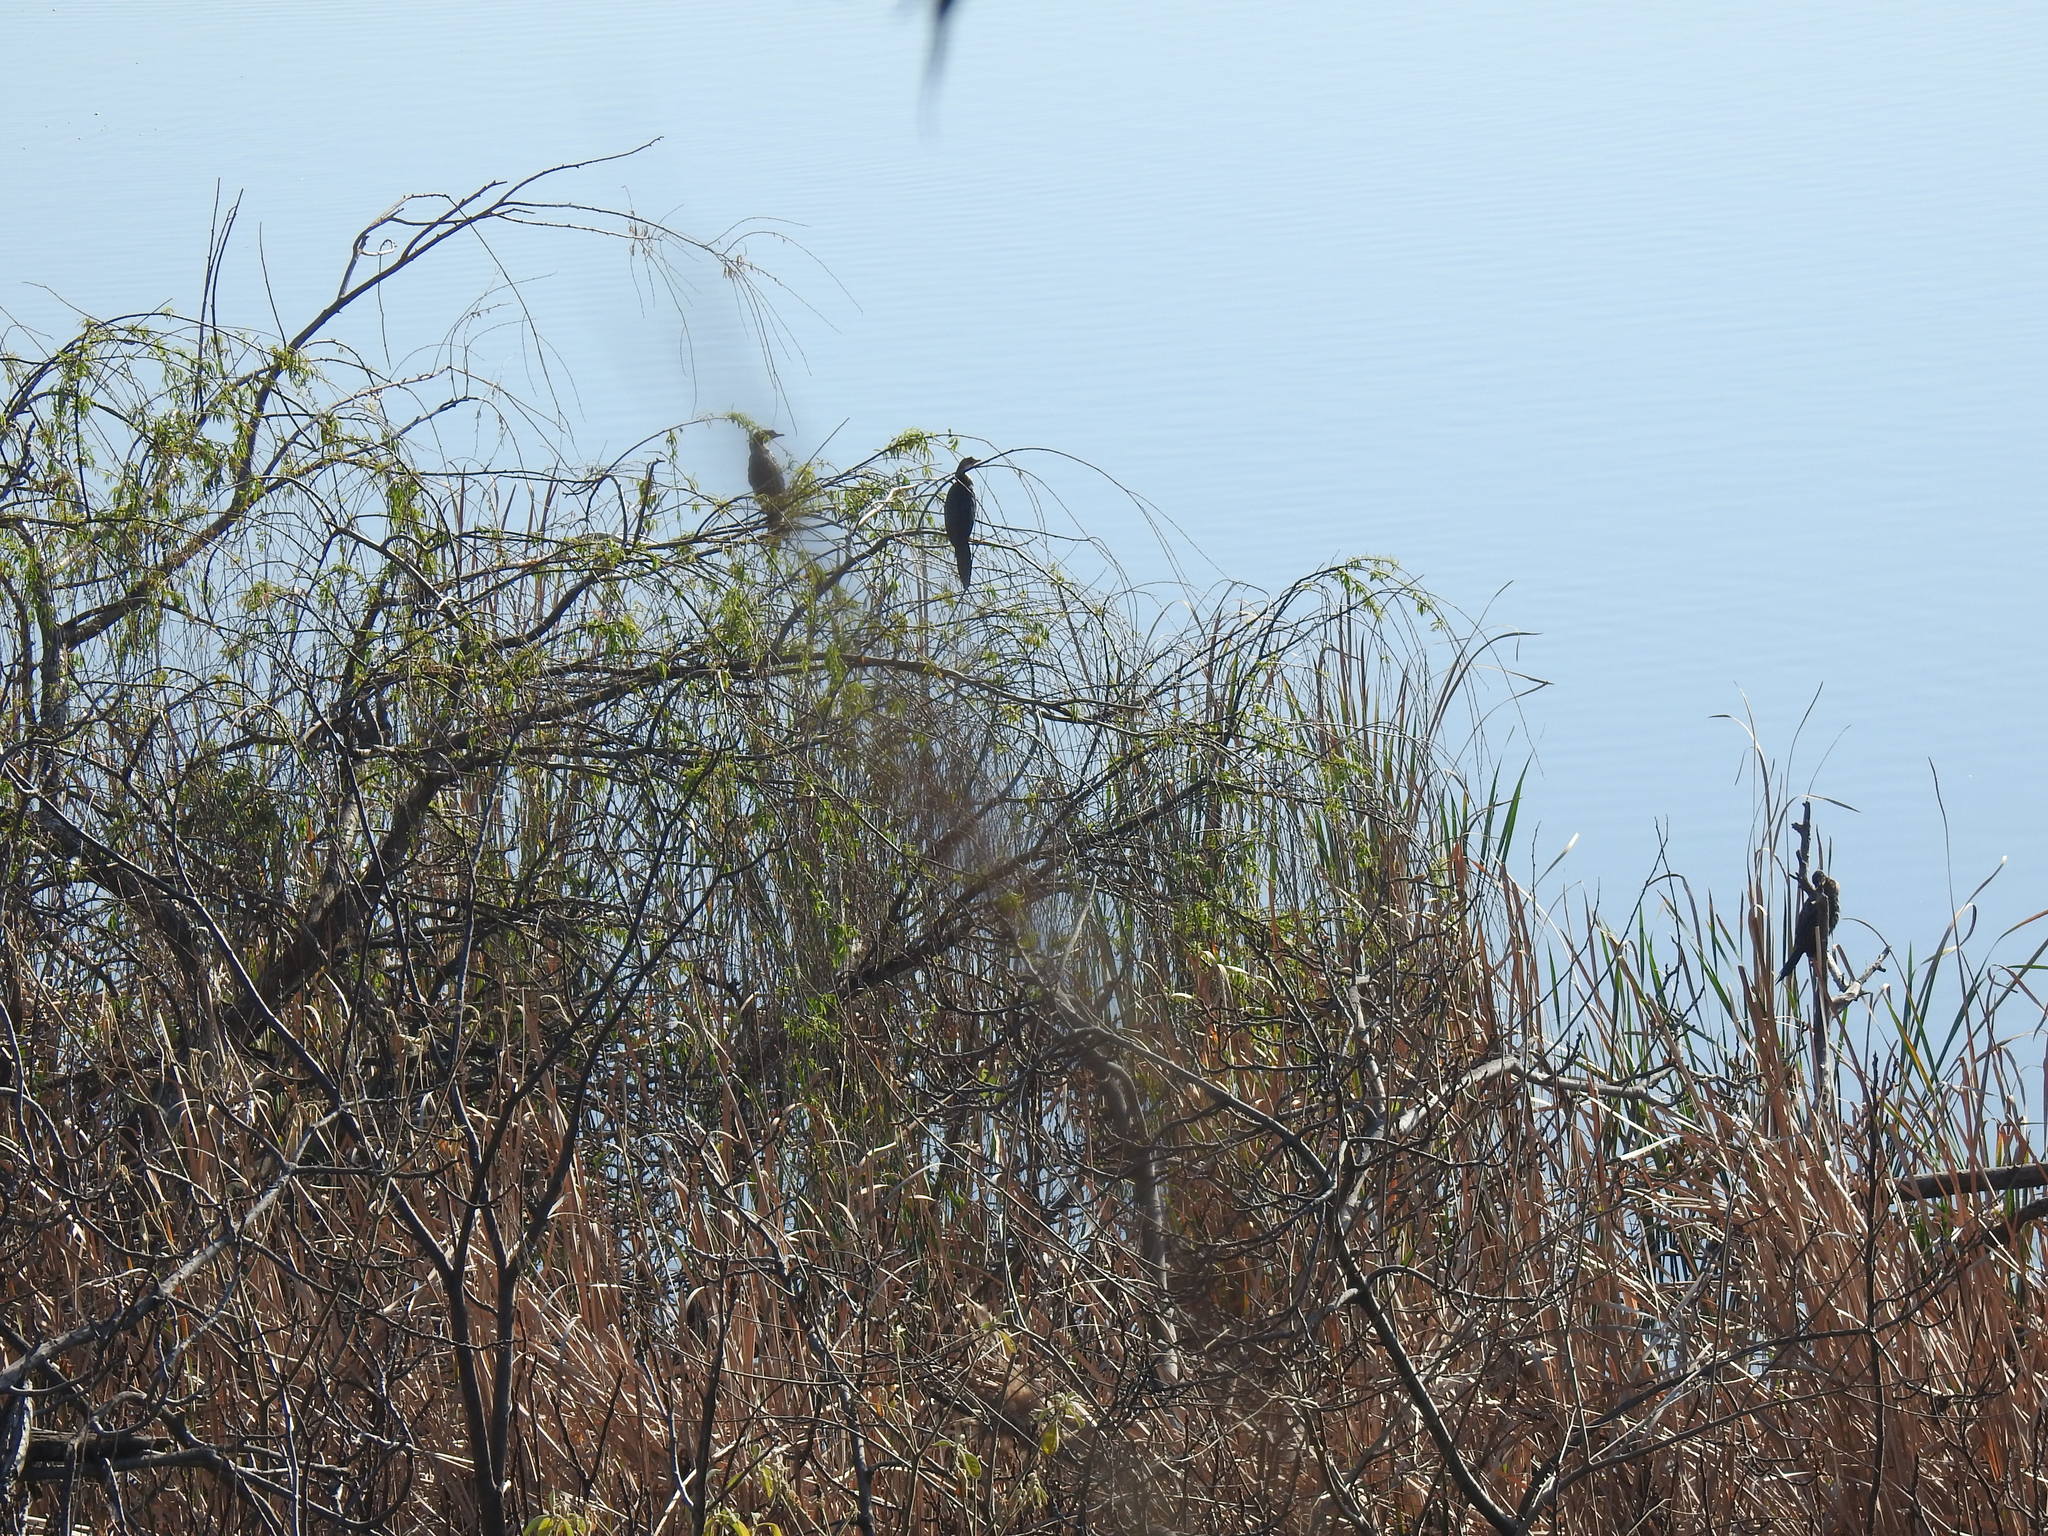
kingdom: Animalia
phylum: Chordata
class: Aves
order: Suliformes
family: Phalacrocoracidae
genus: Microcarbo
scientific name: Microcarbo africanus
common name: Long-tailed cormorant
